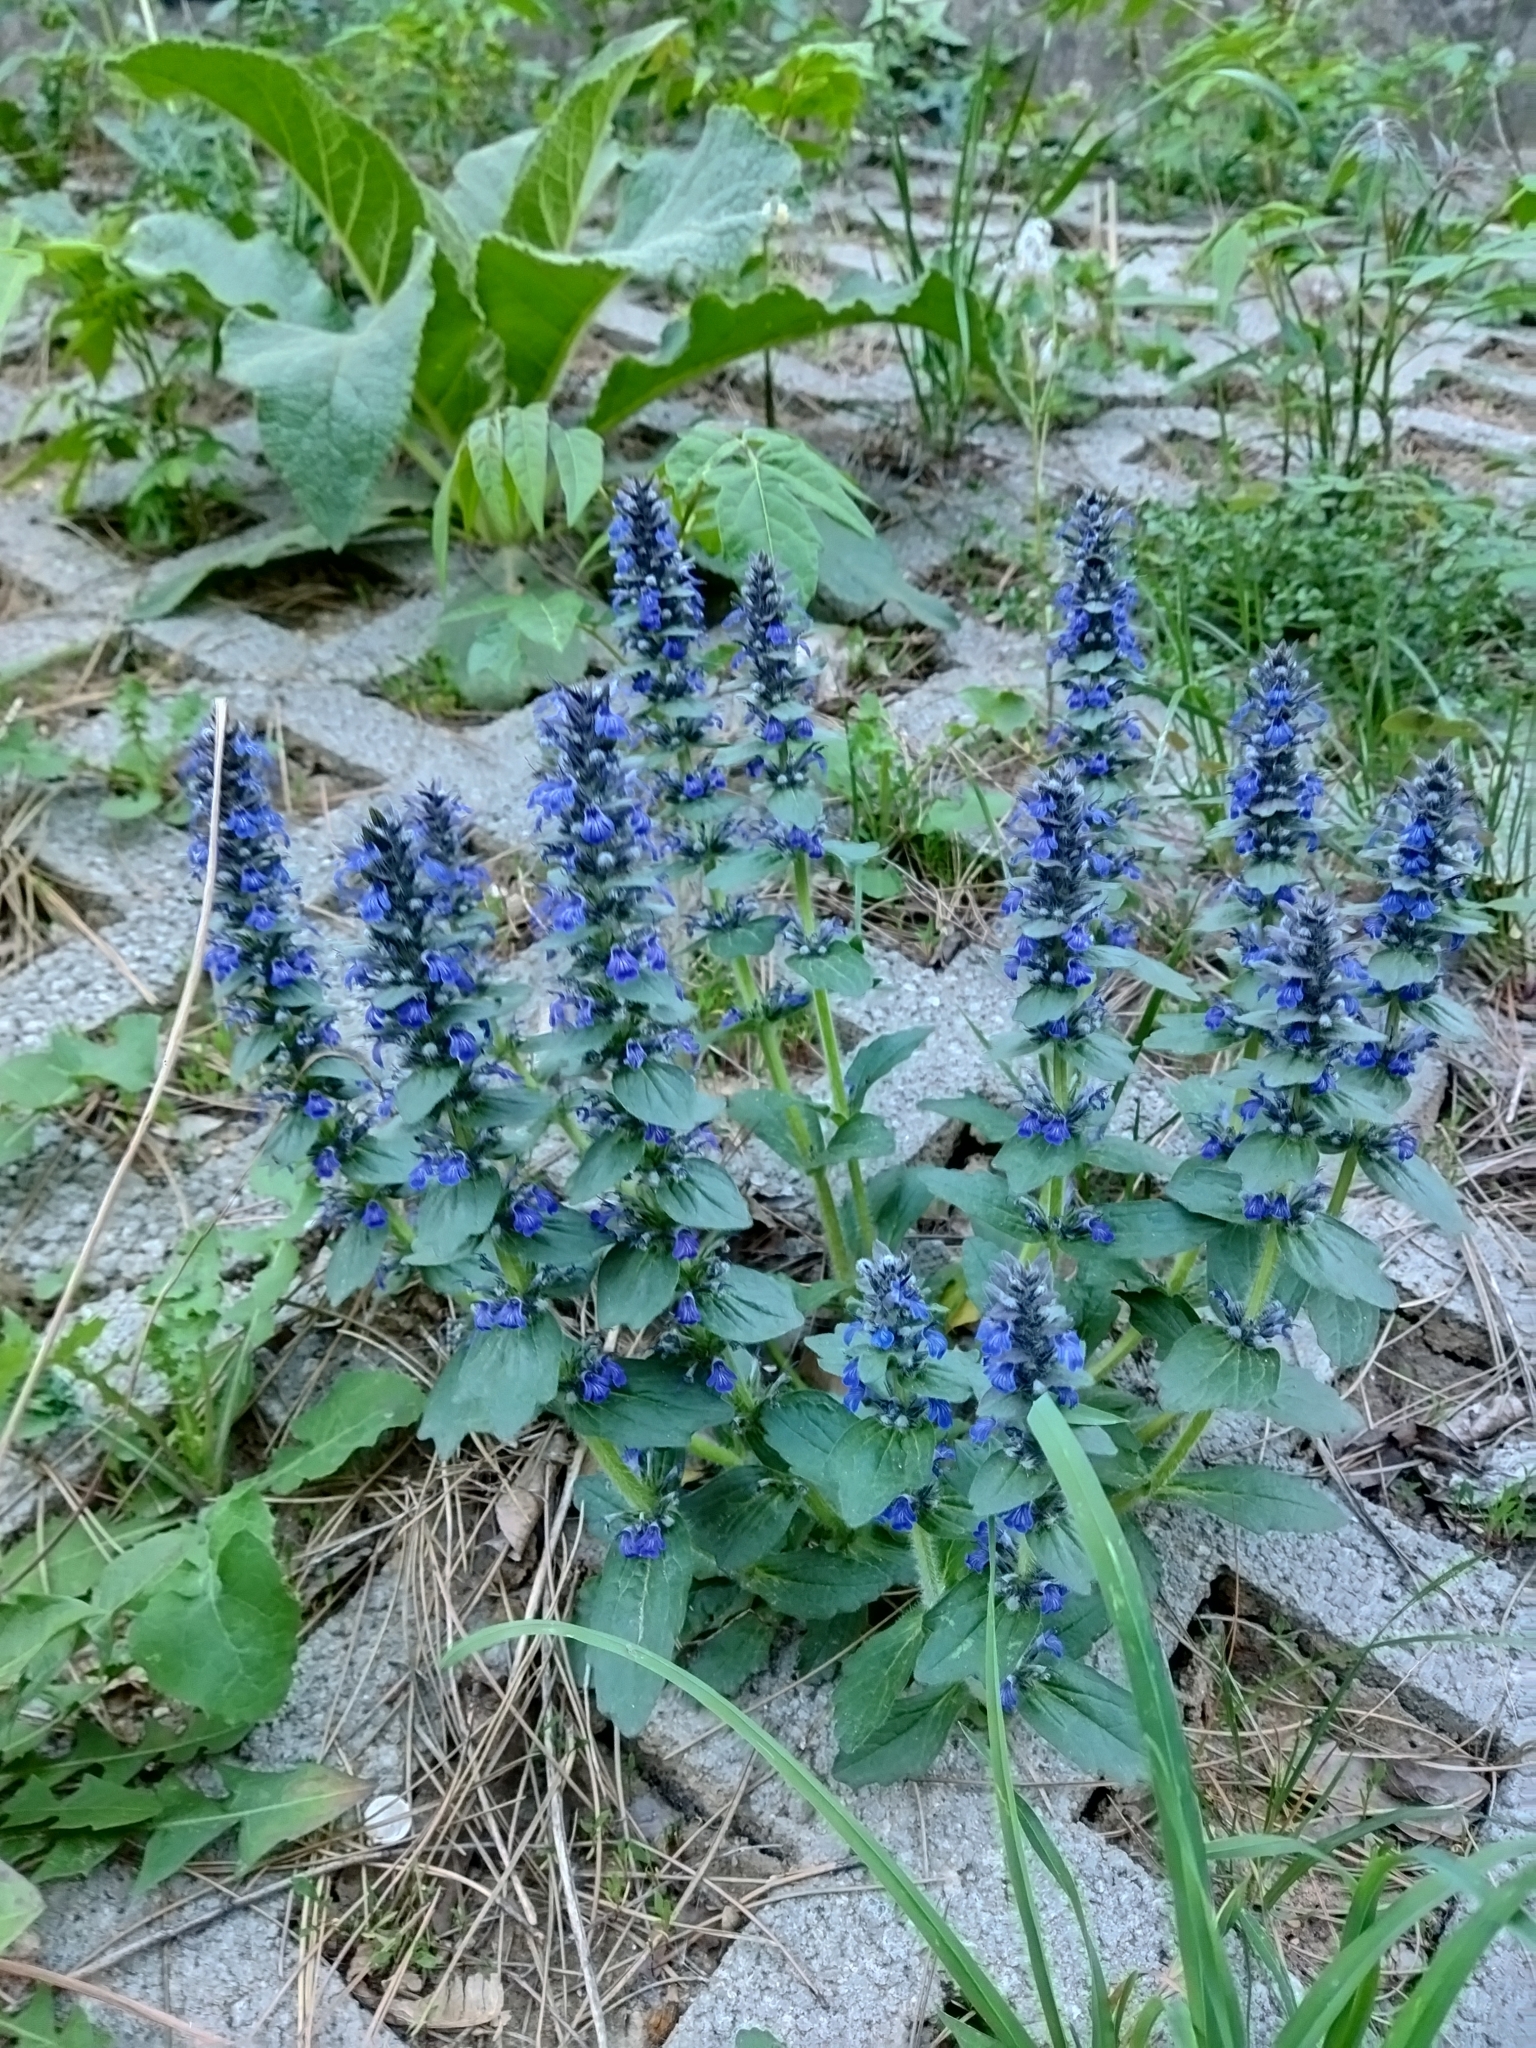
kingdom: Plantae
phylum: Tracheophyta
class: Magnoliopsida
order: Lamiales
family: Lamiaceae
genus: Ajuga
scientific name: Ajuga genevensis
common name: Blue bugle
